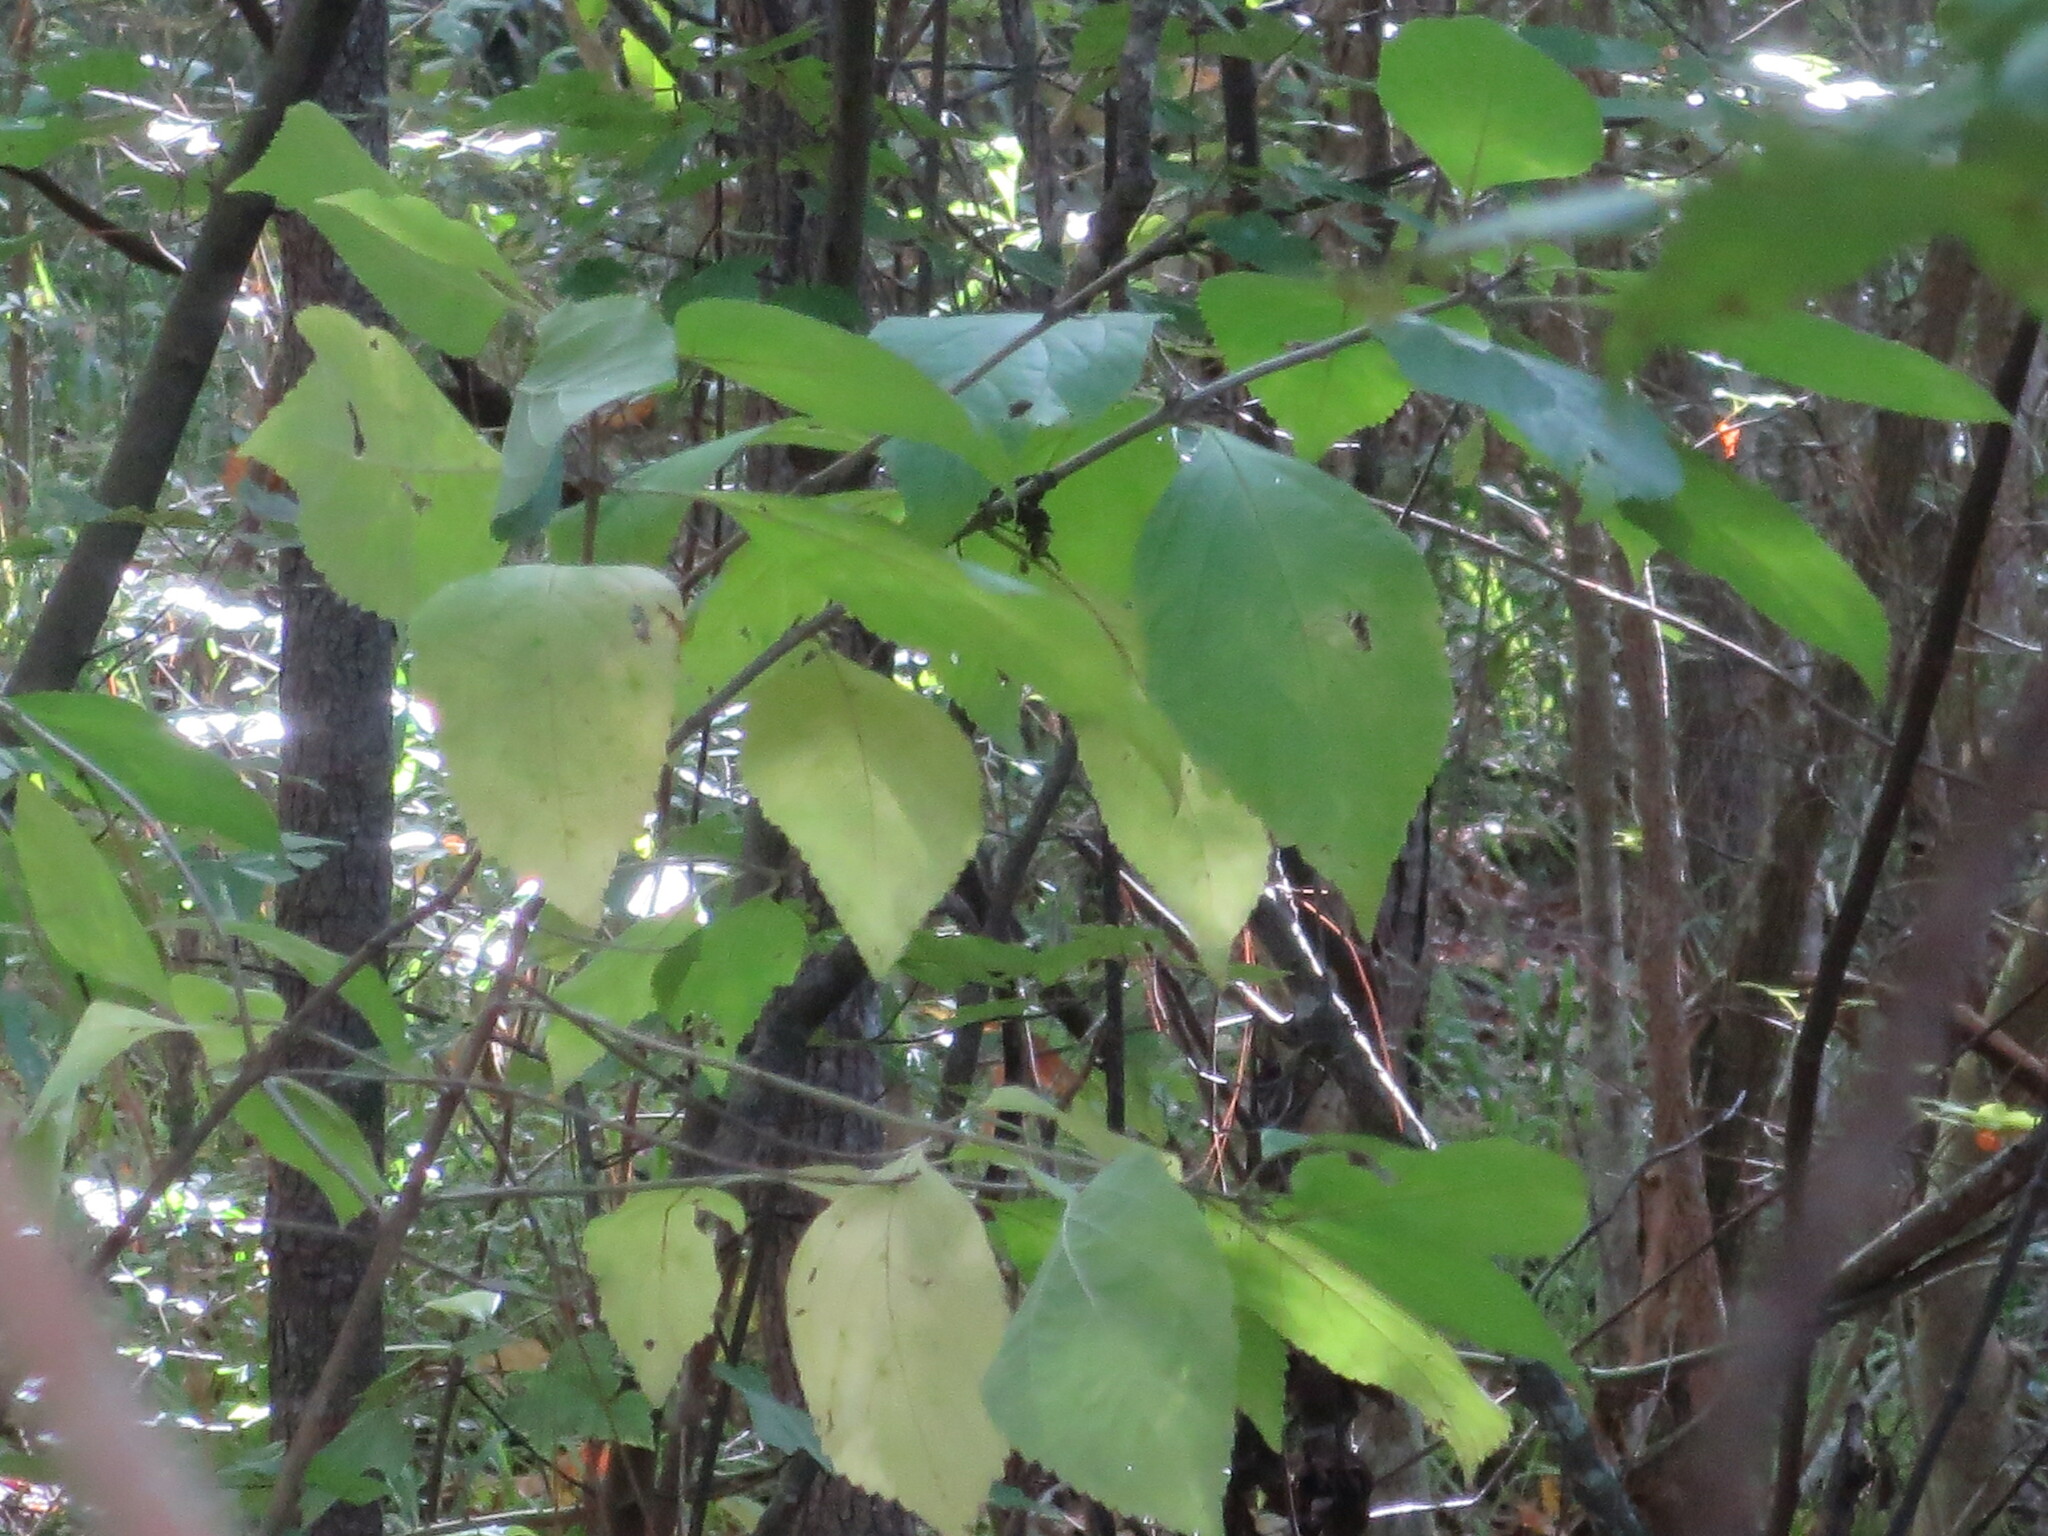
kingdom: Plantae
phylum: Tracheophyta
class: Magnoliopsida
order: Lamiales
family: Lamiaceae
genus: Callicarpa
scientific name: Callicarpa americana
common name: American beautyberry
